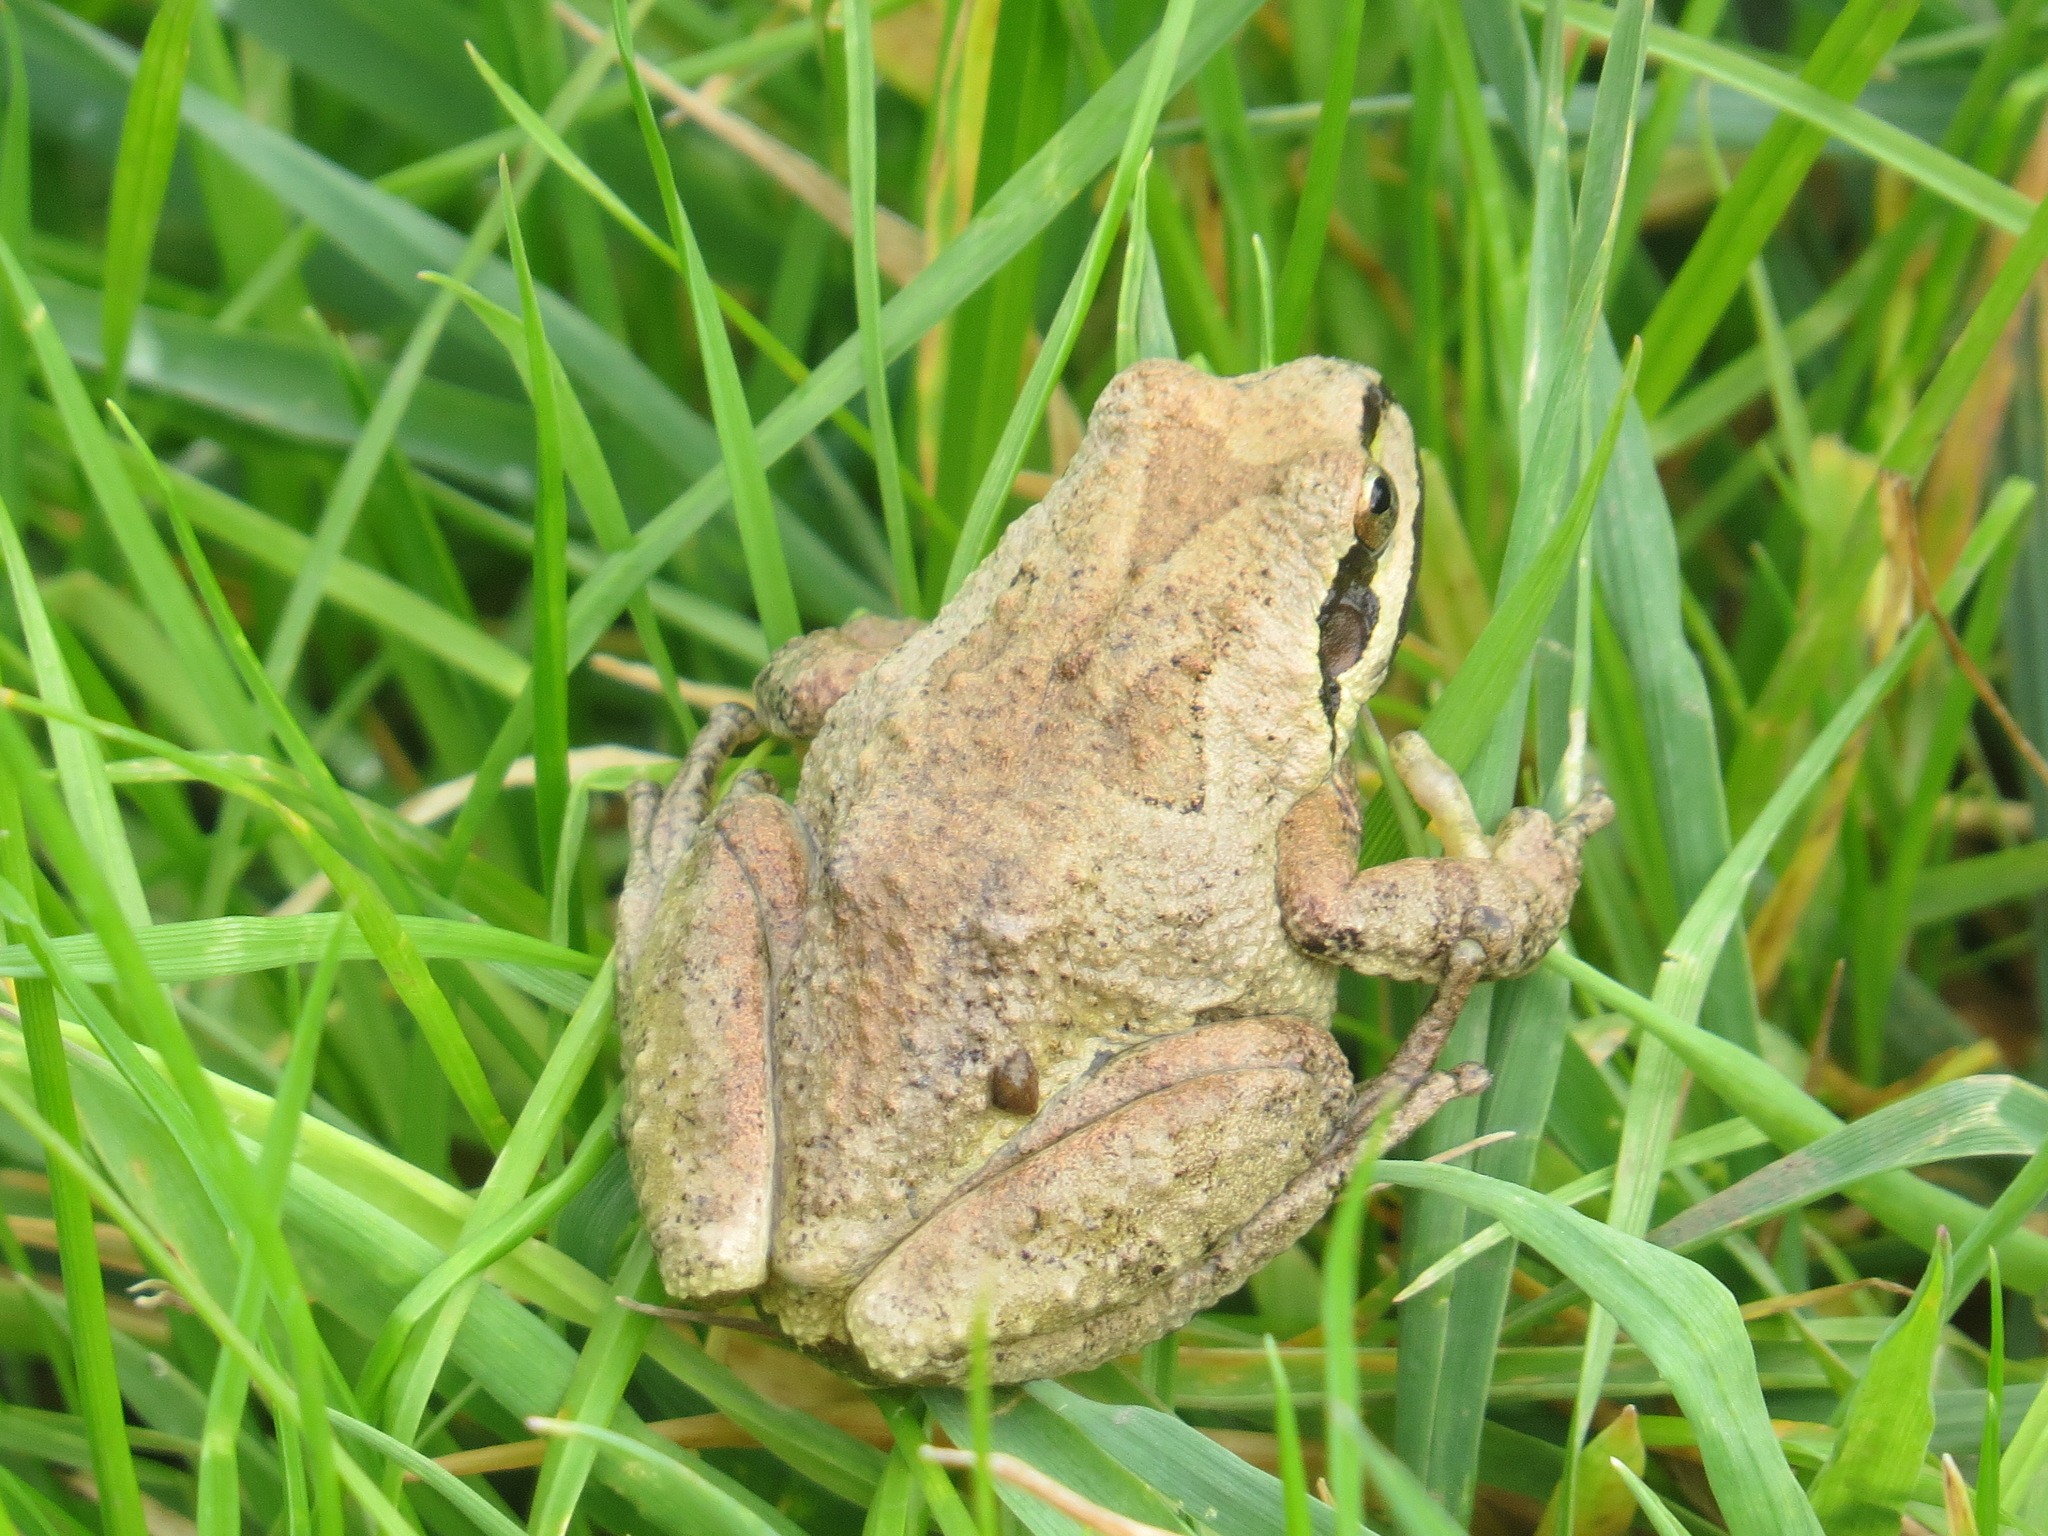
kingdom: Animalia
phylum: Chordata
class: Amphibia
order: Anura
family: Hylidae
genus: Pseudacris
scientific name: Pseudacris regilla
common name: Pacific chorus frog
